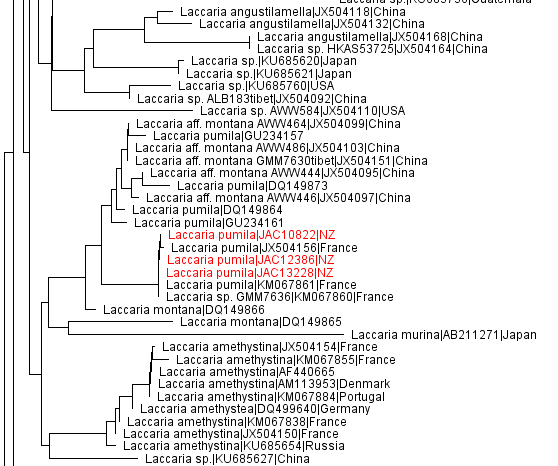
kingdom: Fungi
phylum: Basidiomycota
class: Agaricomycetes
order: Agaricales
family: Hydnangiaceae
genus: Laccaria
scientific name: Laccaria pumila
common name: Willow deceiver
